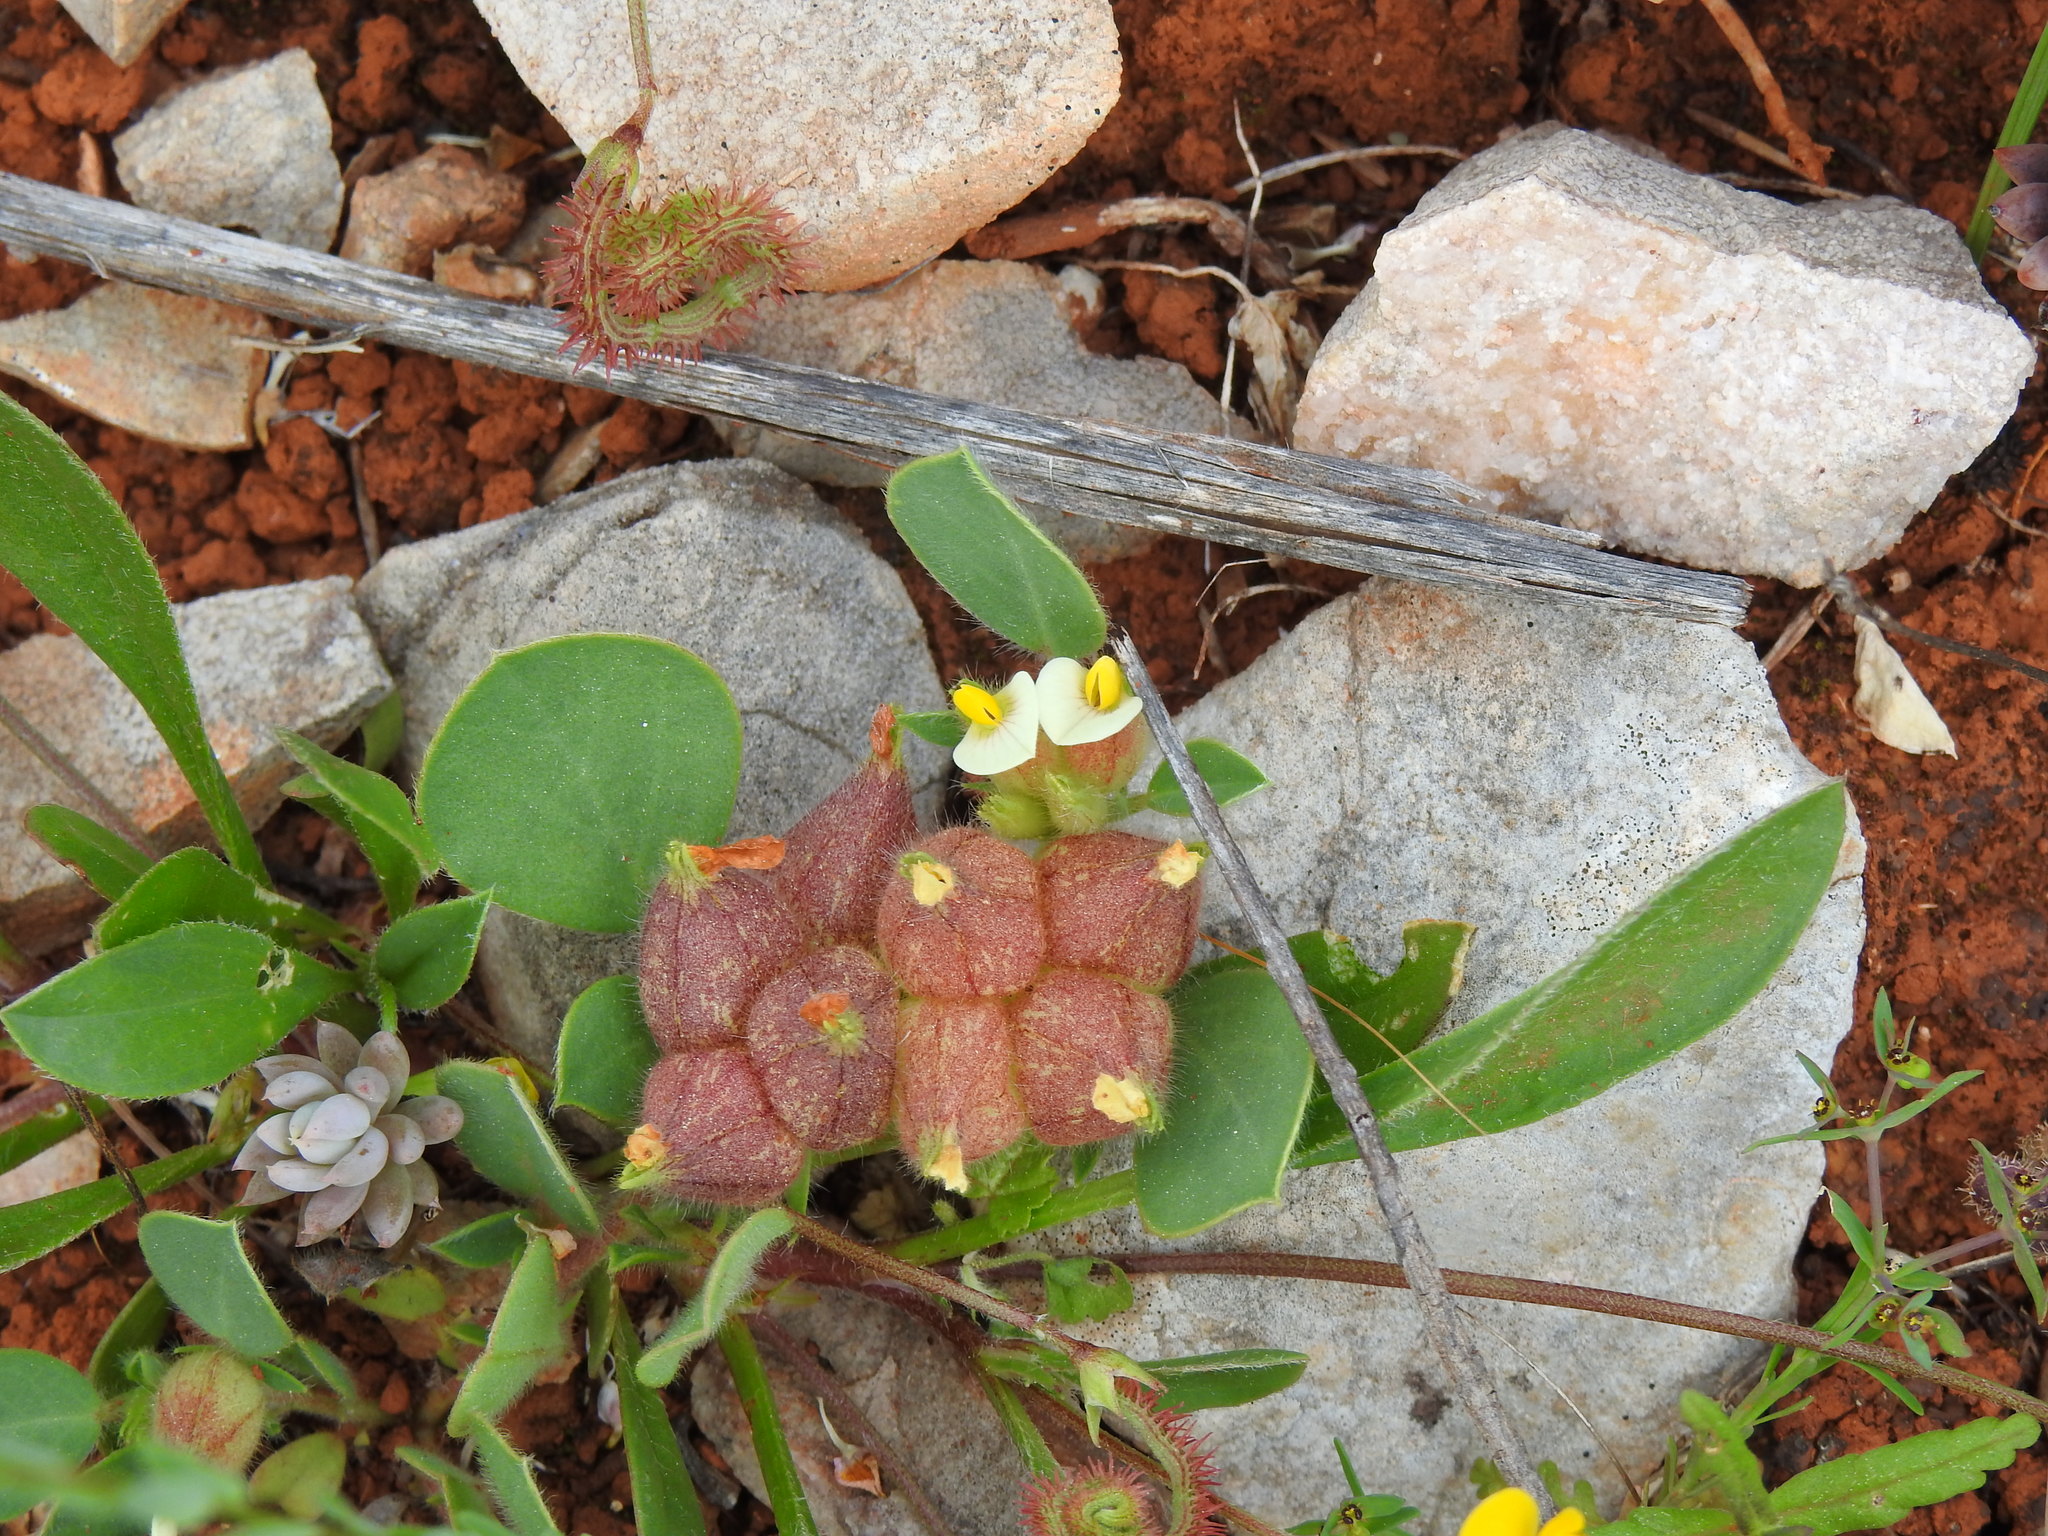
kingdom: Plantae
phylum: Tracheophyta
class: Magnoliopsida
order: Fabales
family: Fabaceae
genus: Tripodion
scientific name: Tripodion tetraphyllum
